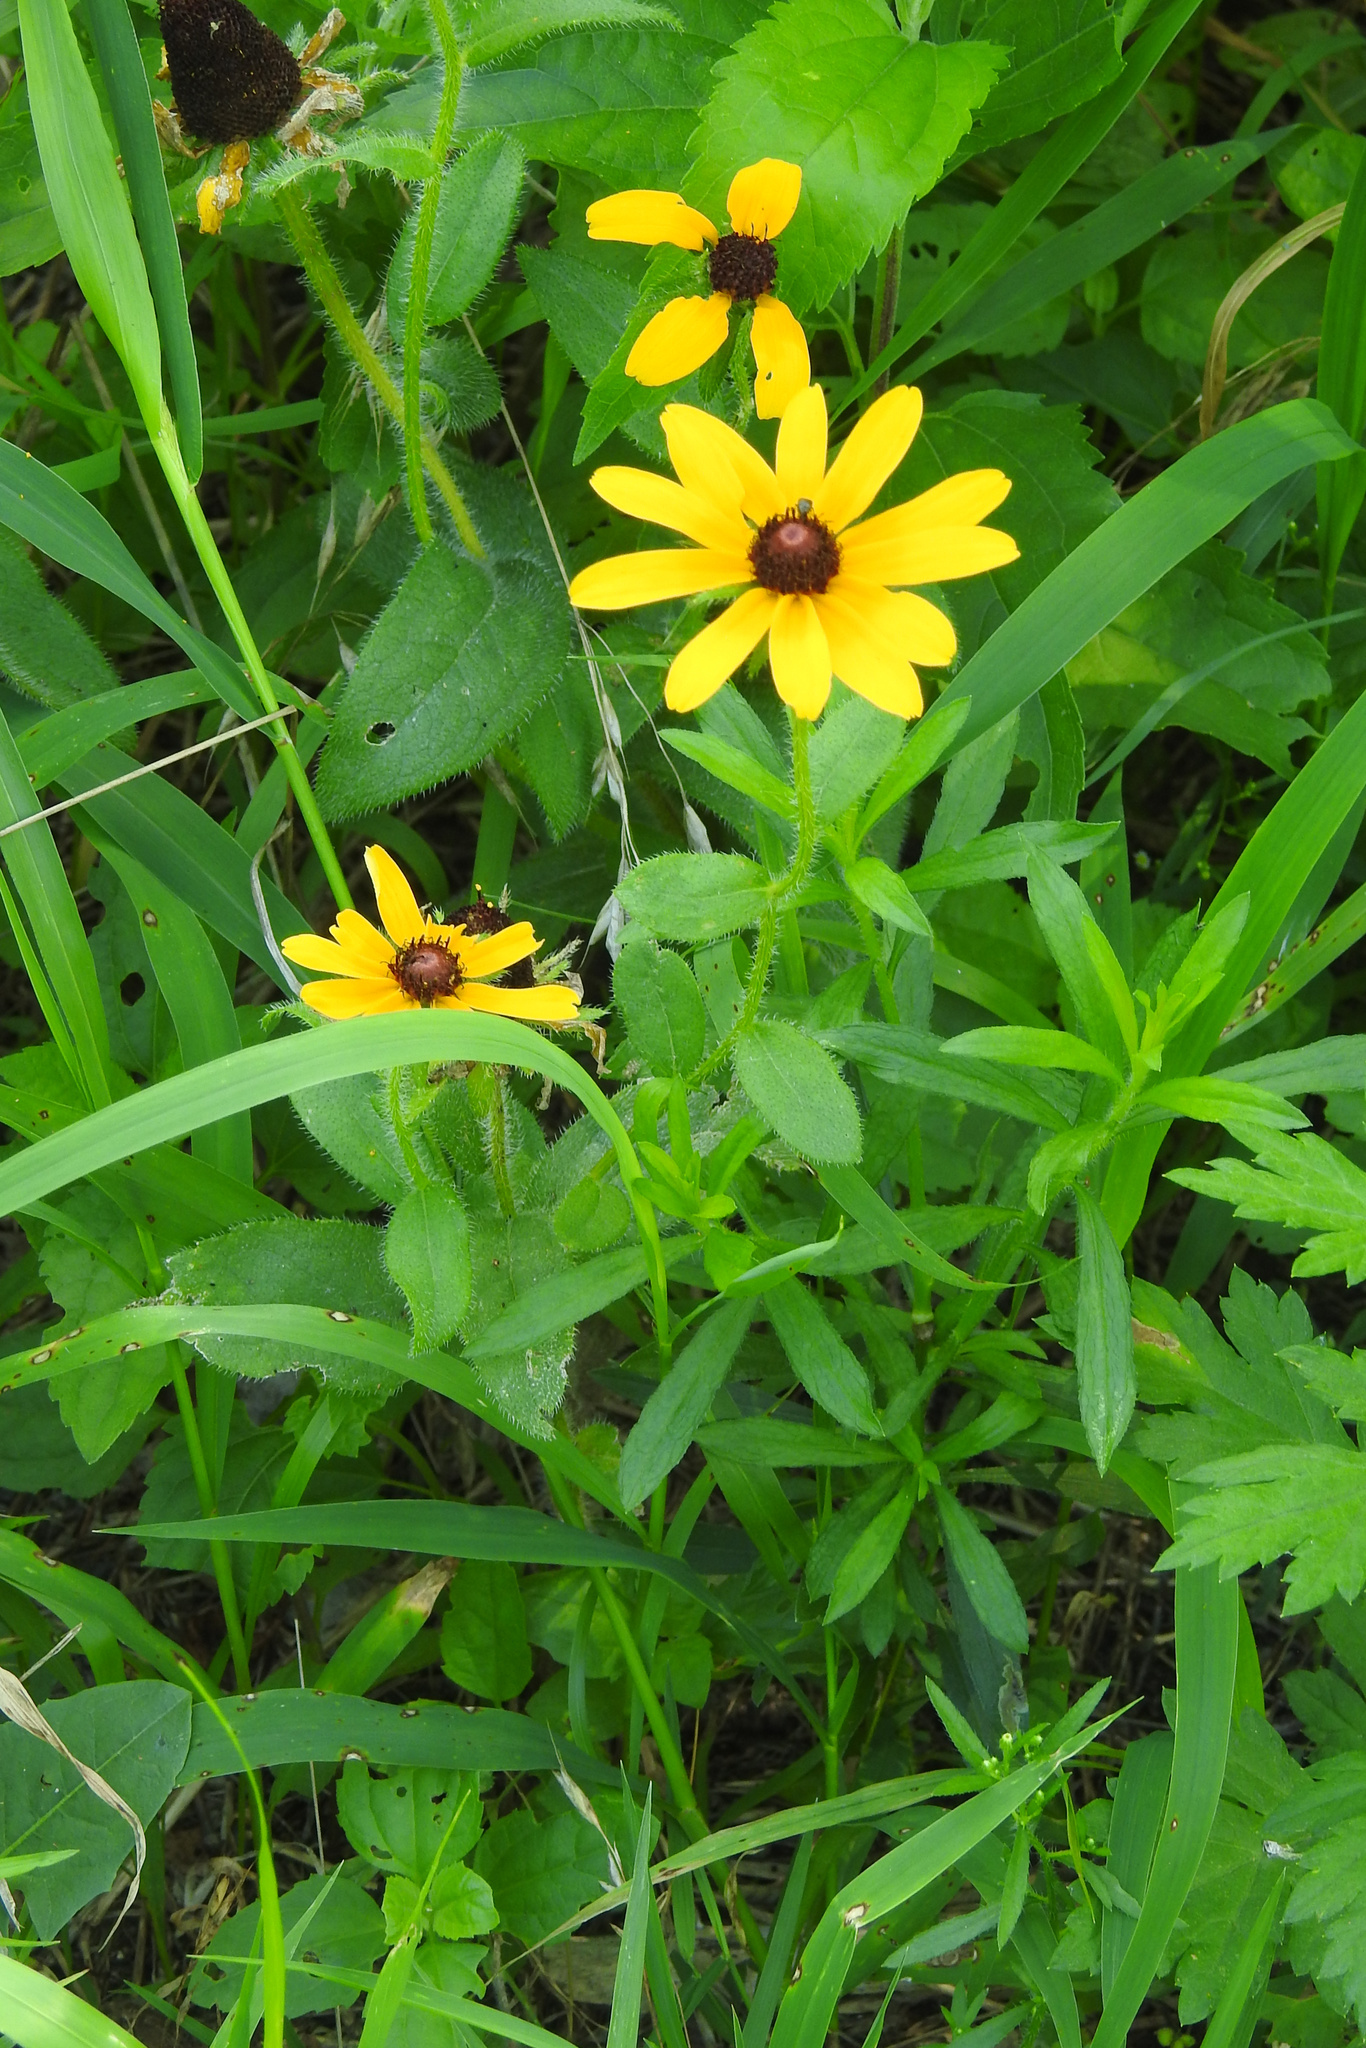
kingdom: Plantae
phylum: Tracheophyta
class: Magnoliopsida
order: Asterales
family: Asteraceae
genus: Rudbeckia
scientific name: Rudbeckia hirta
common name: Black-eyed-susan
